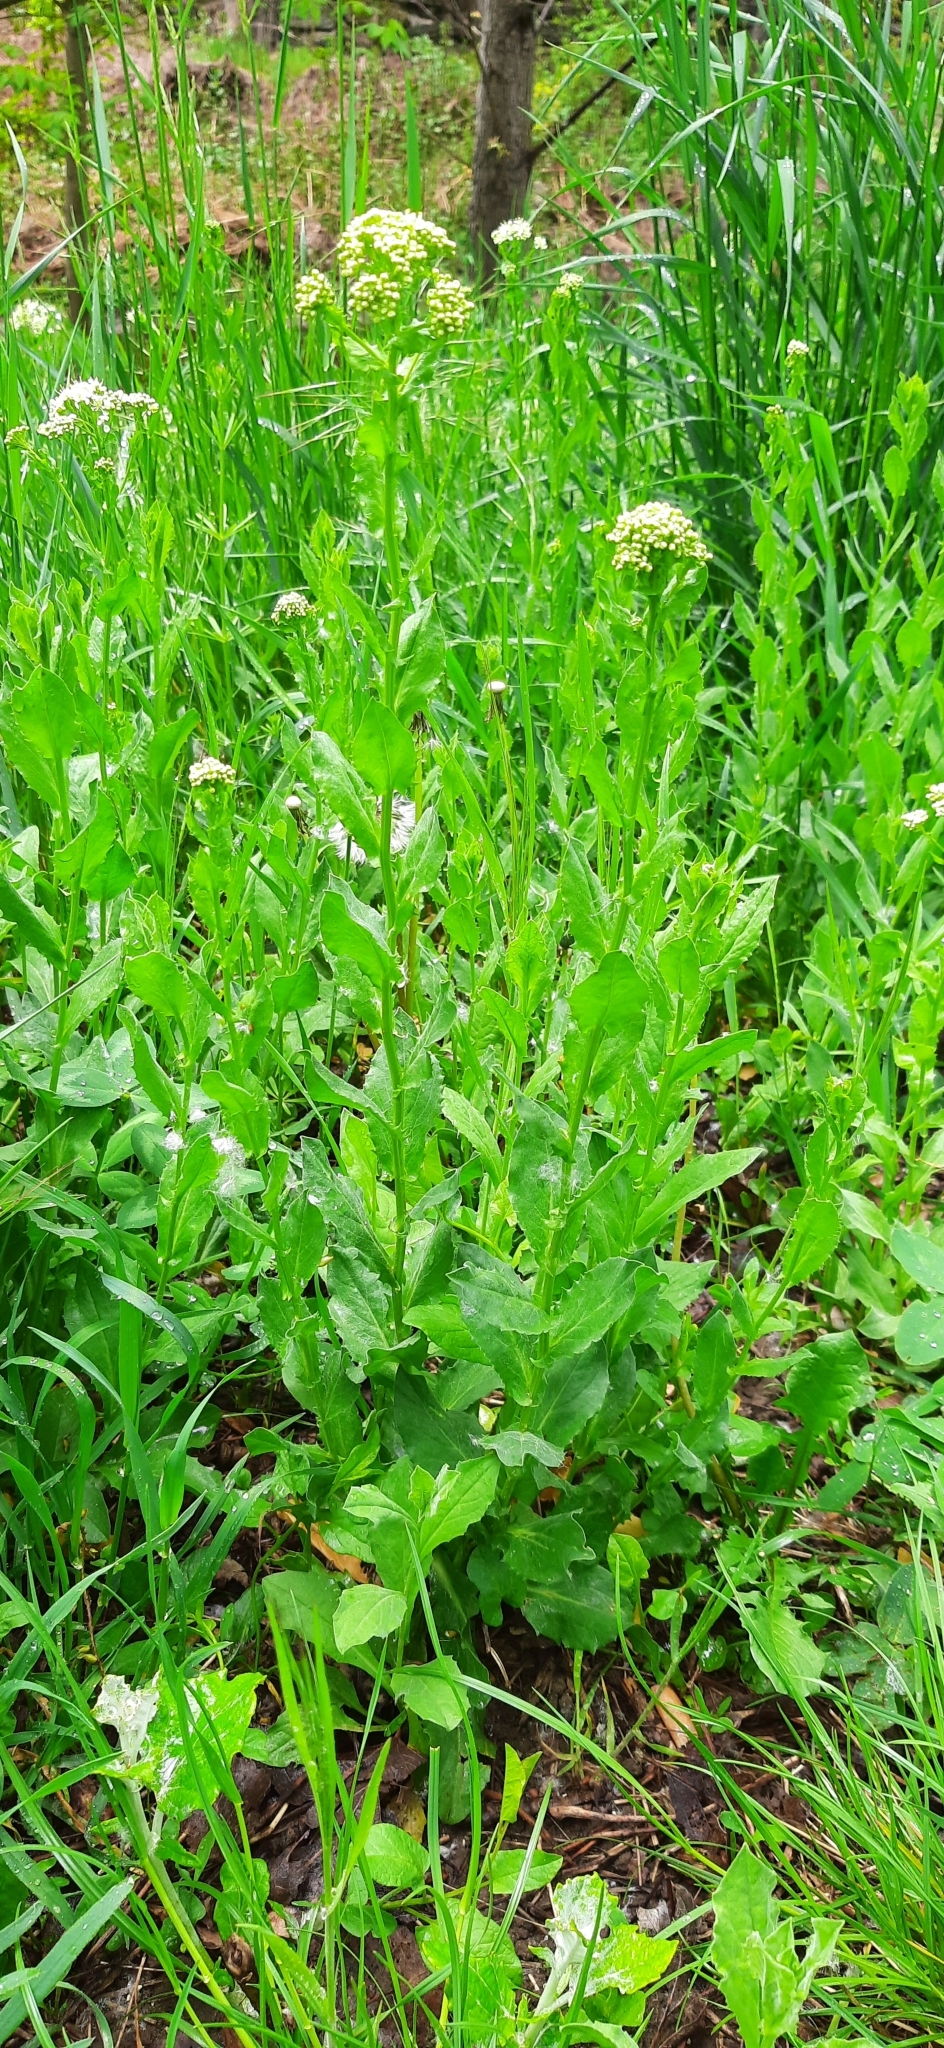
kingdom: Plantae
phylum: Tracheophyta
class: Magnoliopsida
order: Brassicales
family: Brassicaceae
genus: Lepidium
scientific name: Lepidium draba
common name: Hoary cress
